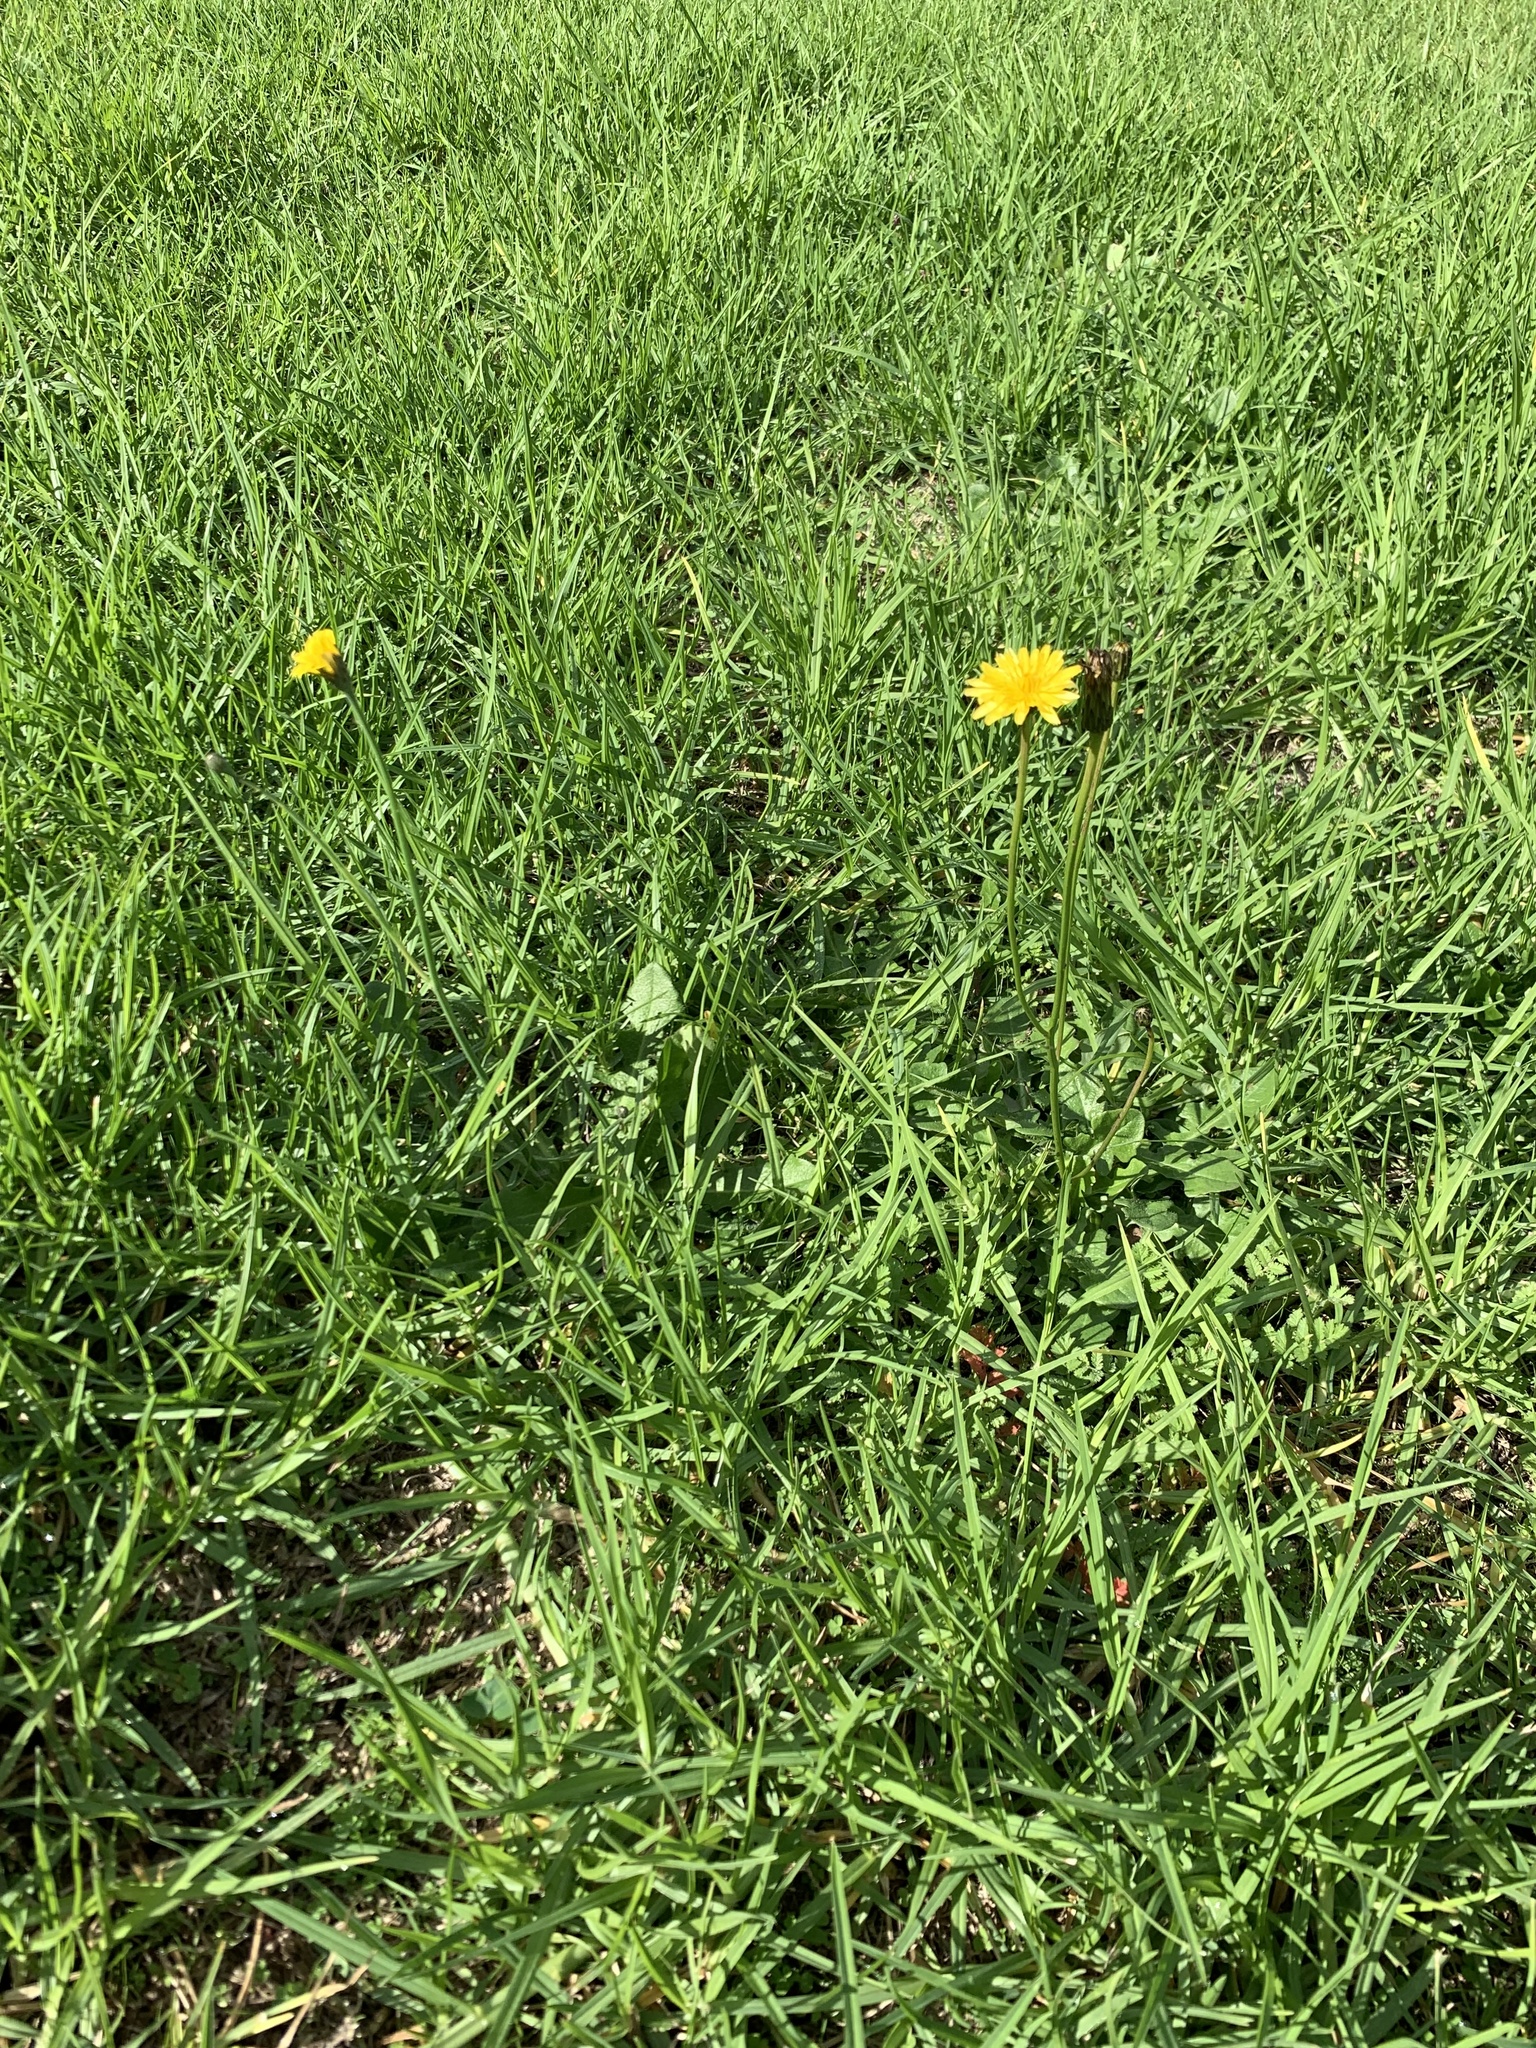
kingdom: Plantae
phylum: Tracheophyta
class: Magnoliopsida
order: Asterales
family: Asteraceae
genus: Hypochaeris
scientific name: Hypochaeris radicata
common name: Flatweed
